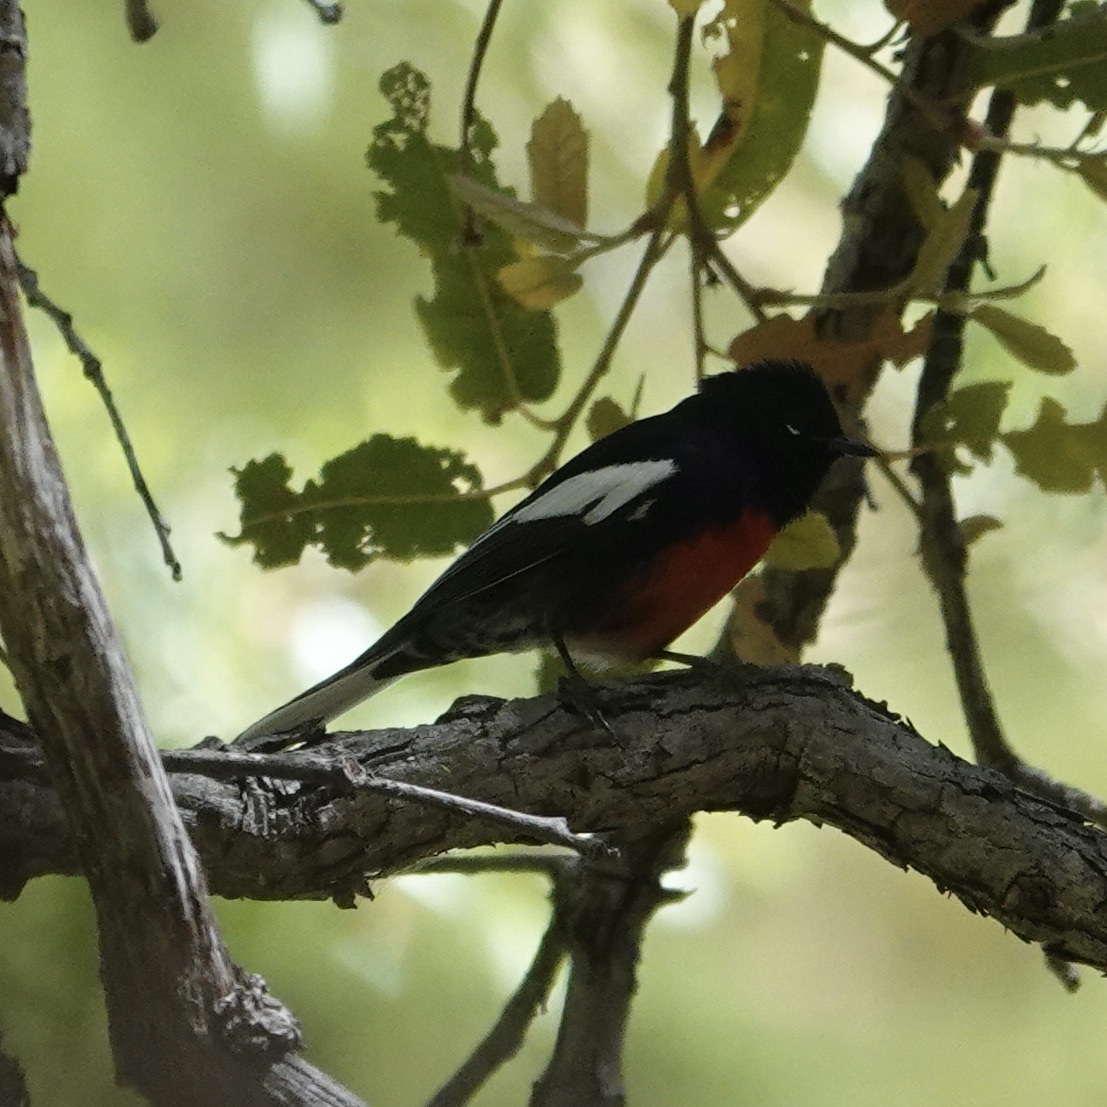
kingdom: Animalia
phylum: Chordata
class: Aves
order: Passeriformes
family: Parulidae
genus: Myioborus
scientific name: Myioborus pictus
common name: Painted whitestart
